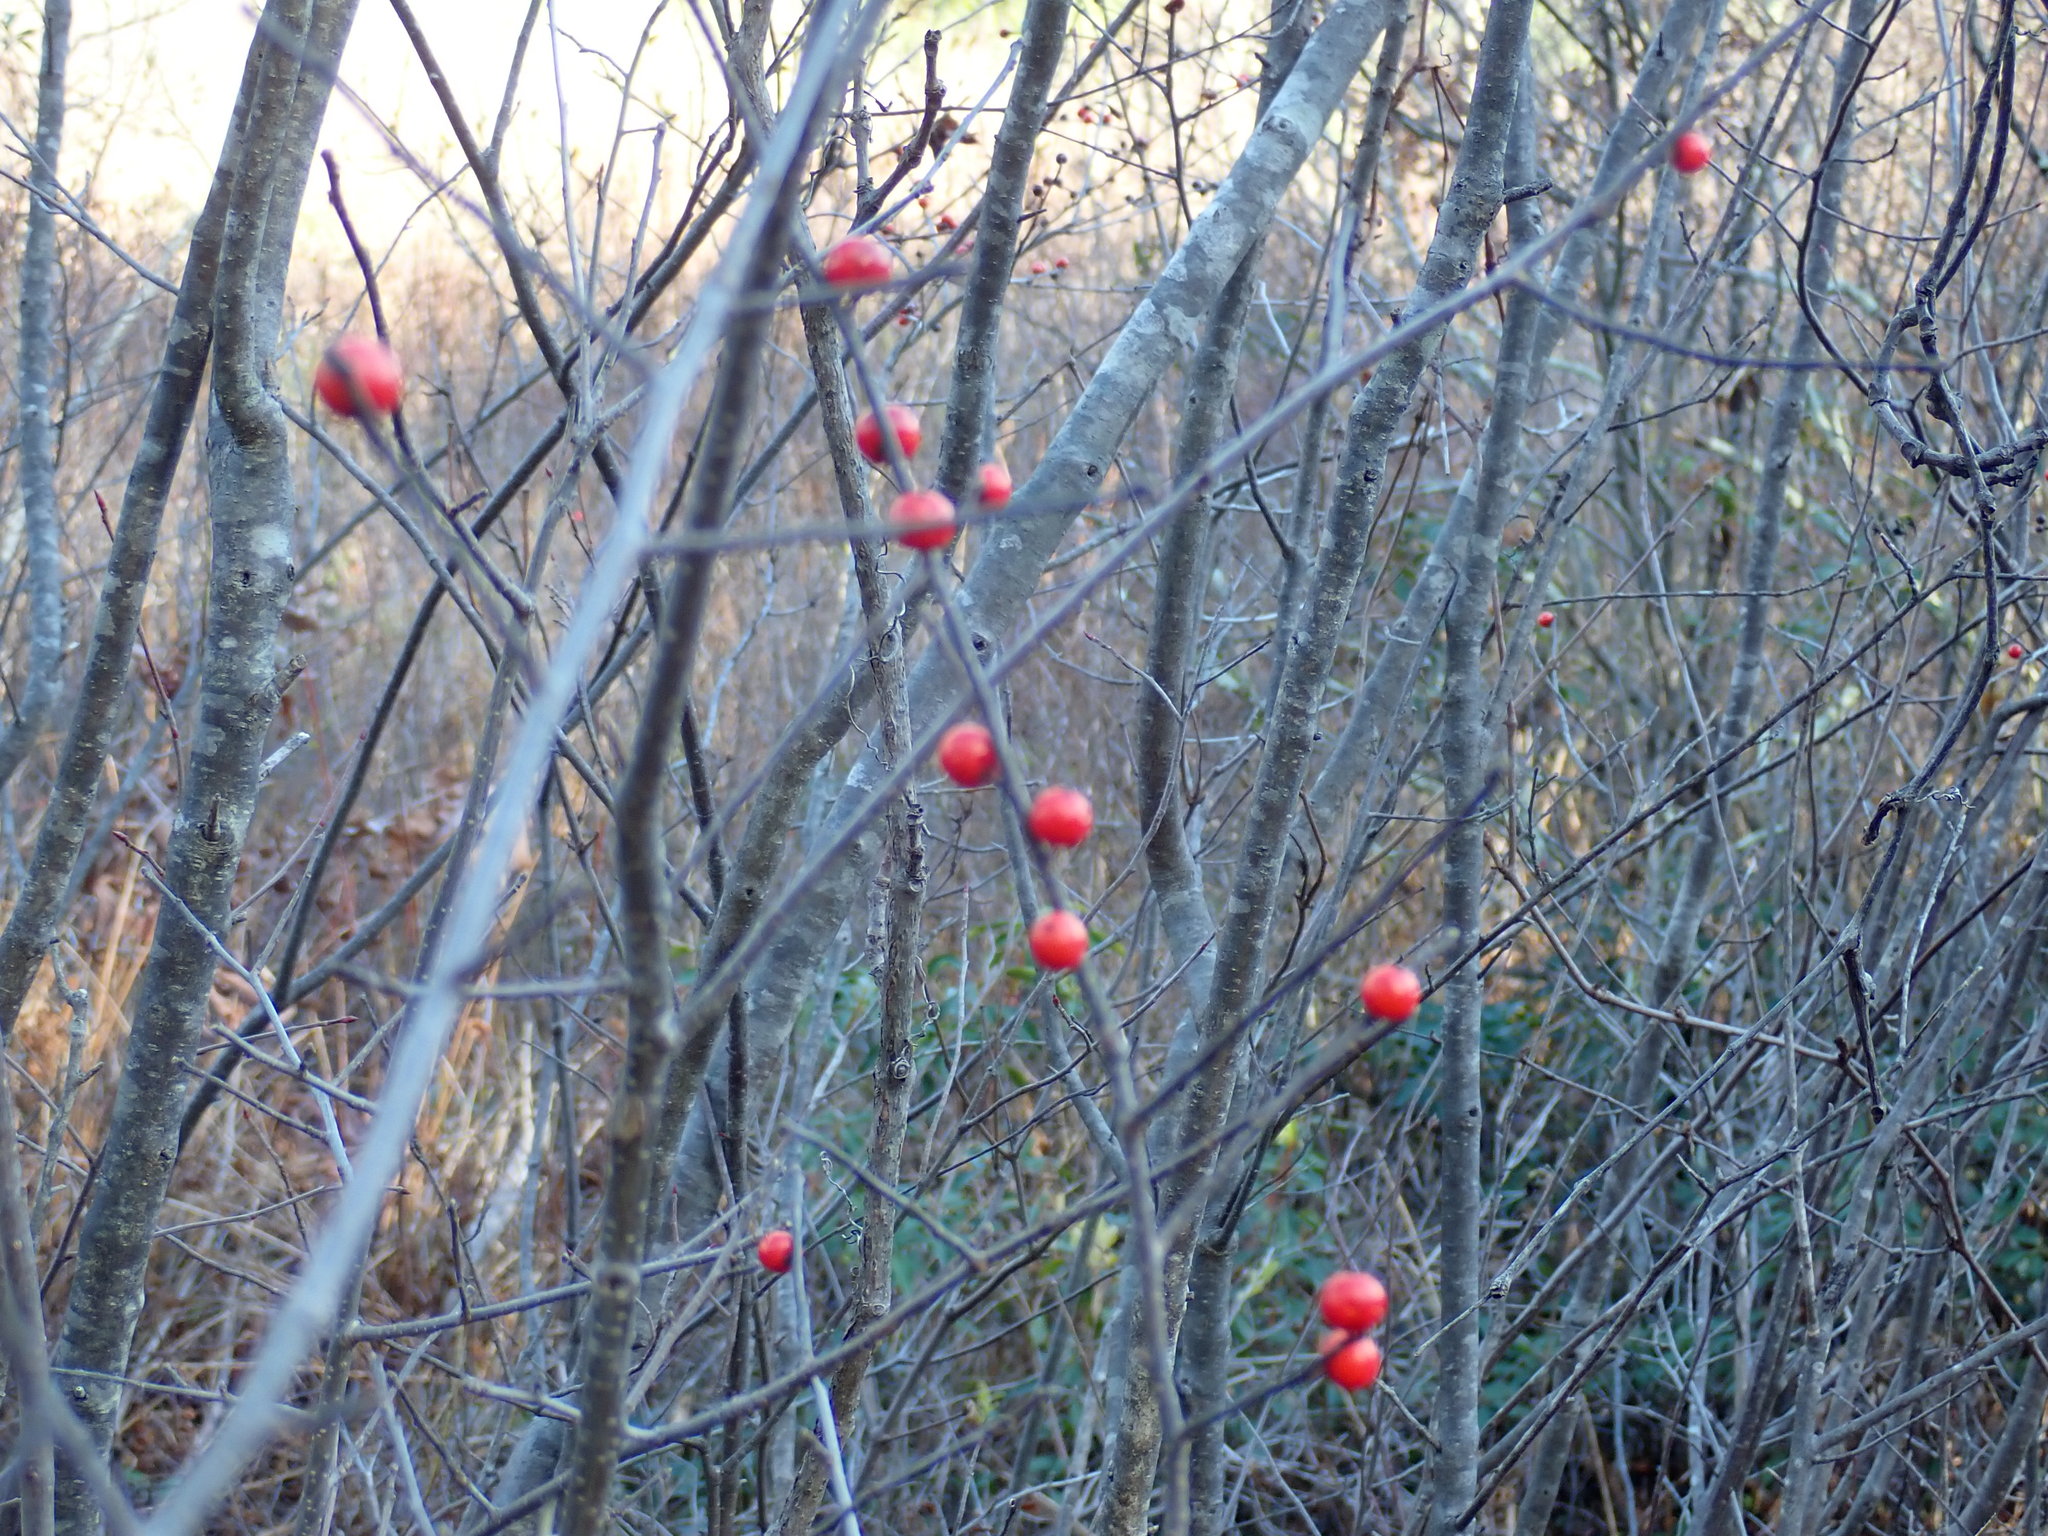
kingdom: Plantae
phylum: Tracheophyta
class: Magnoliopsida
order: Aquifoliales
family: Aquifoliaceae
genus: Ilex
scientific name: Ilex verticillata
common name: Virginia winterberry
